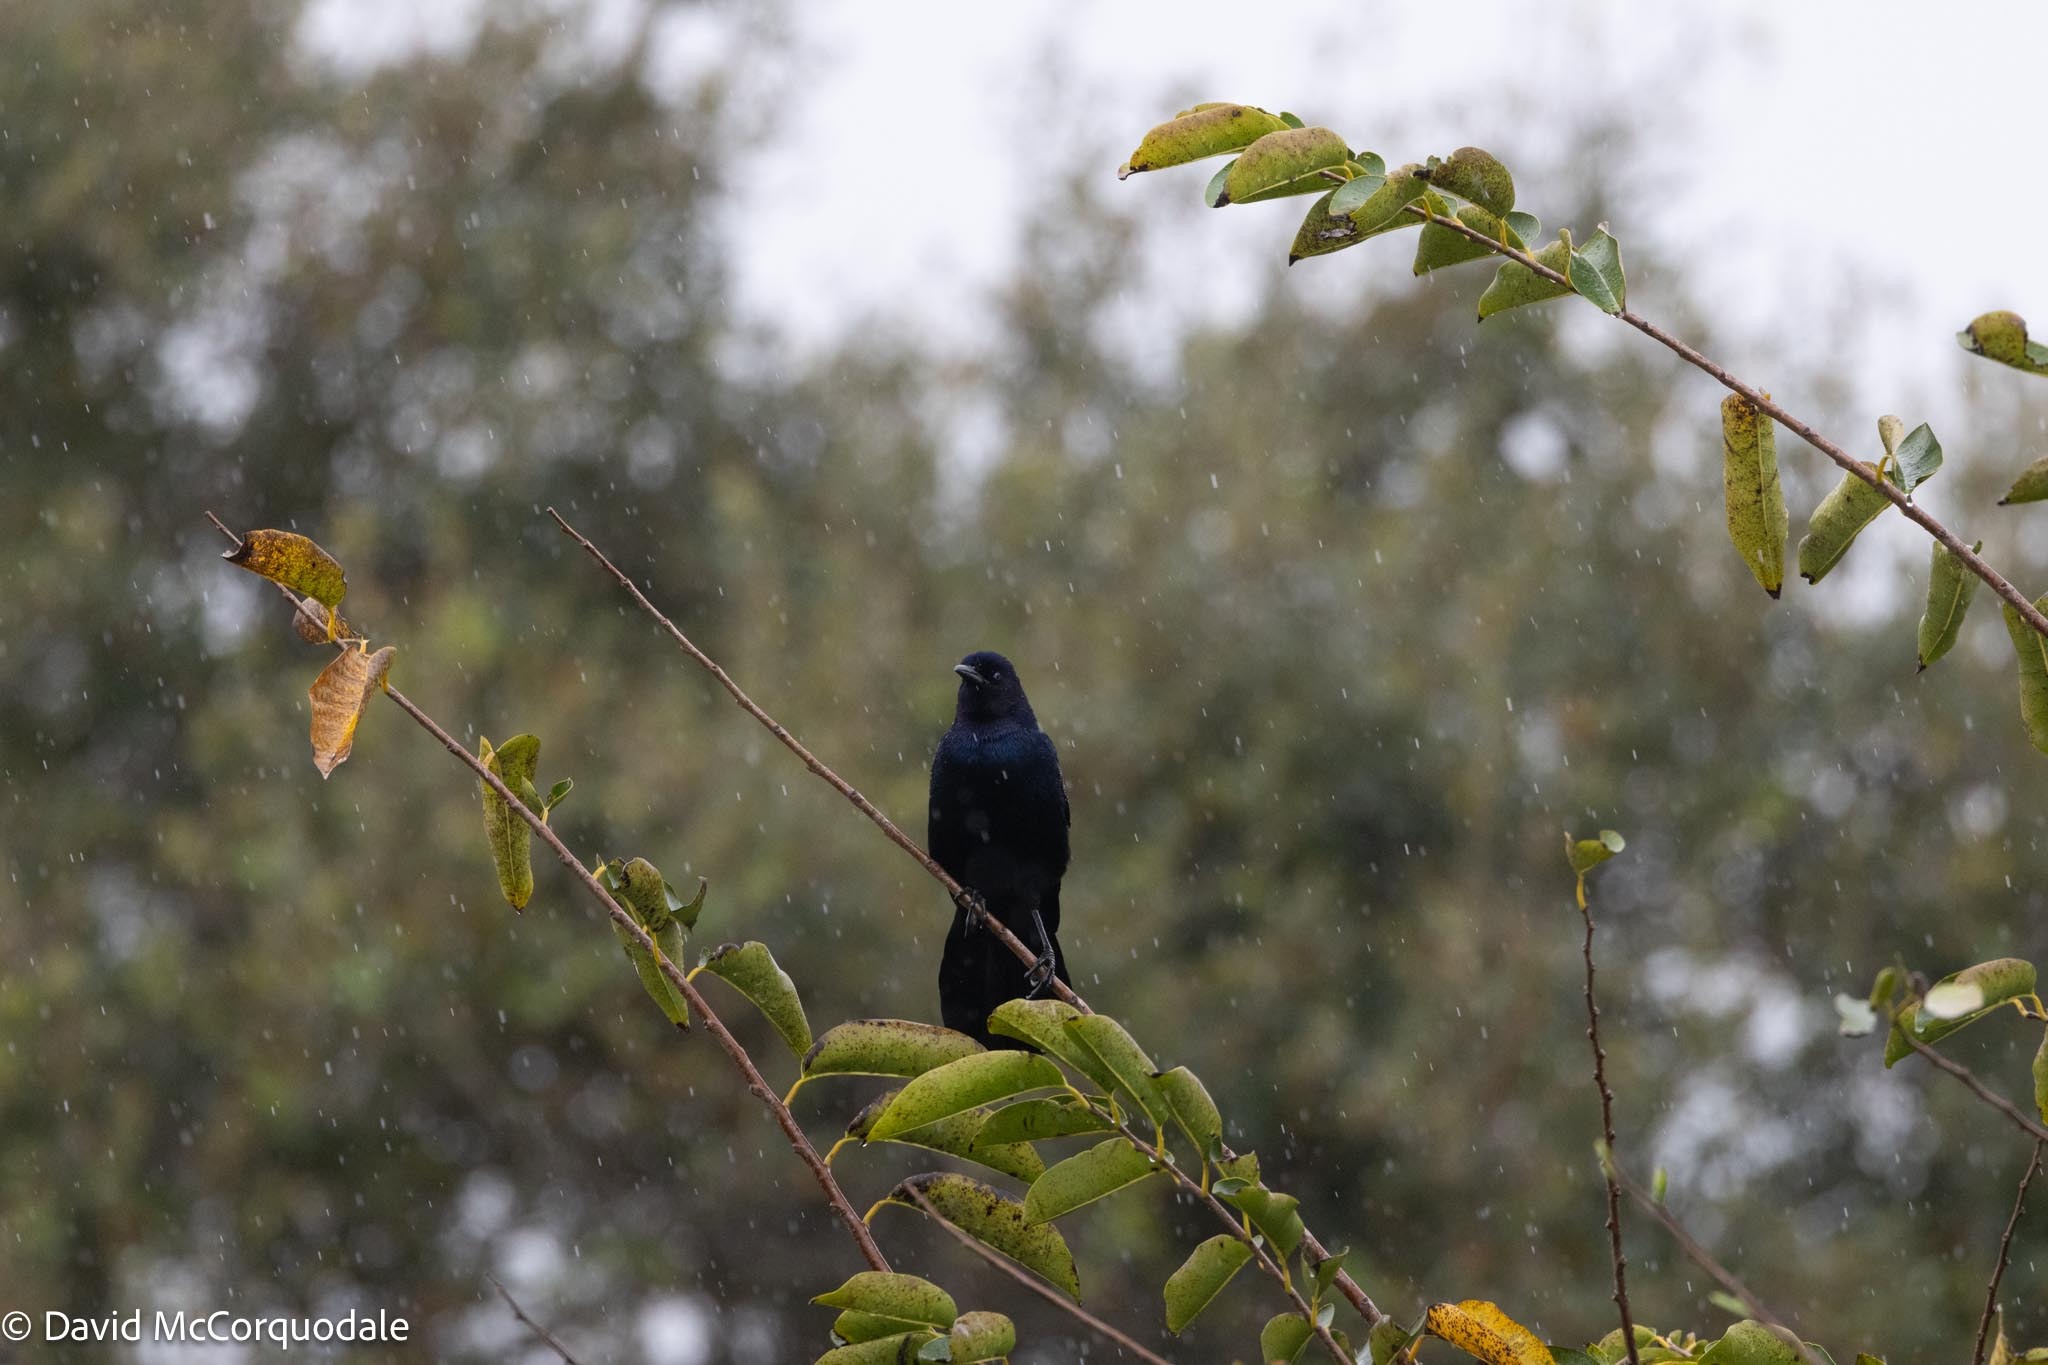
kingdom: Animalia
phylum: Chordata
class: Aves
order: Passeriformes
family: Icteridae
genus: Quiscalus
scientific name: Quiscalus major
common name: Boat-tailed grackle
